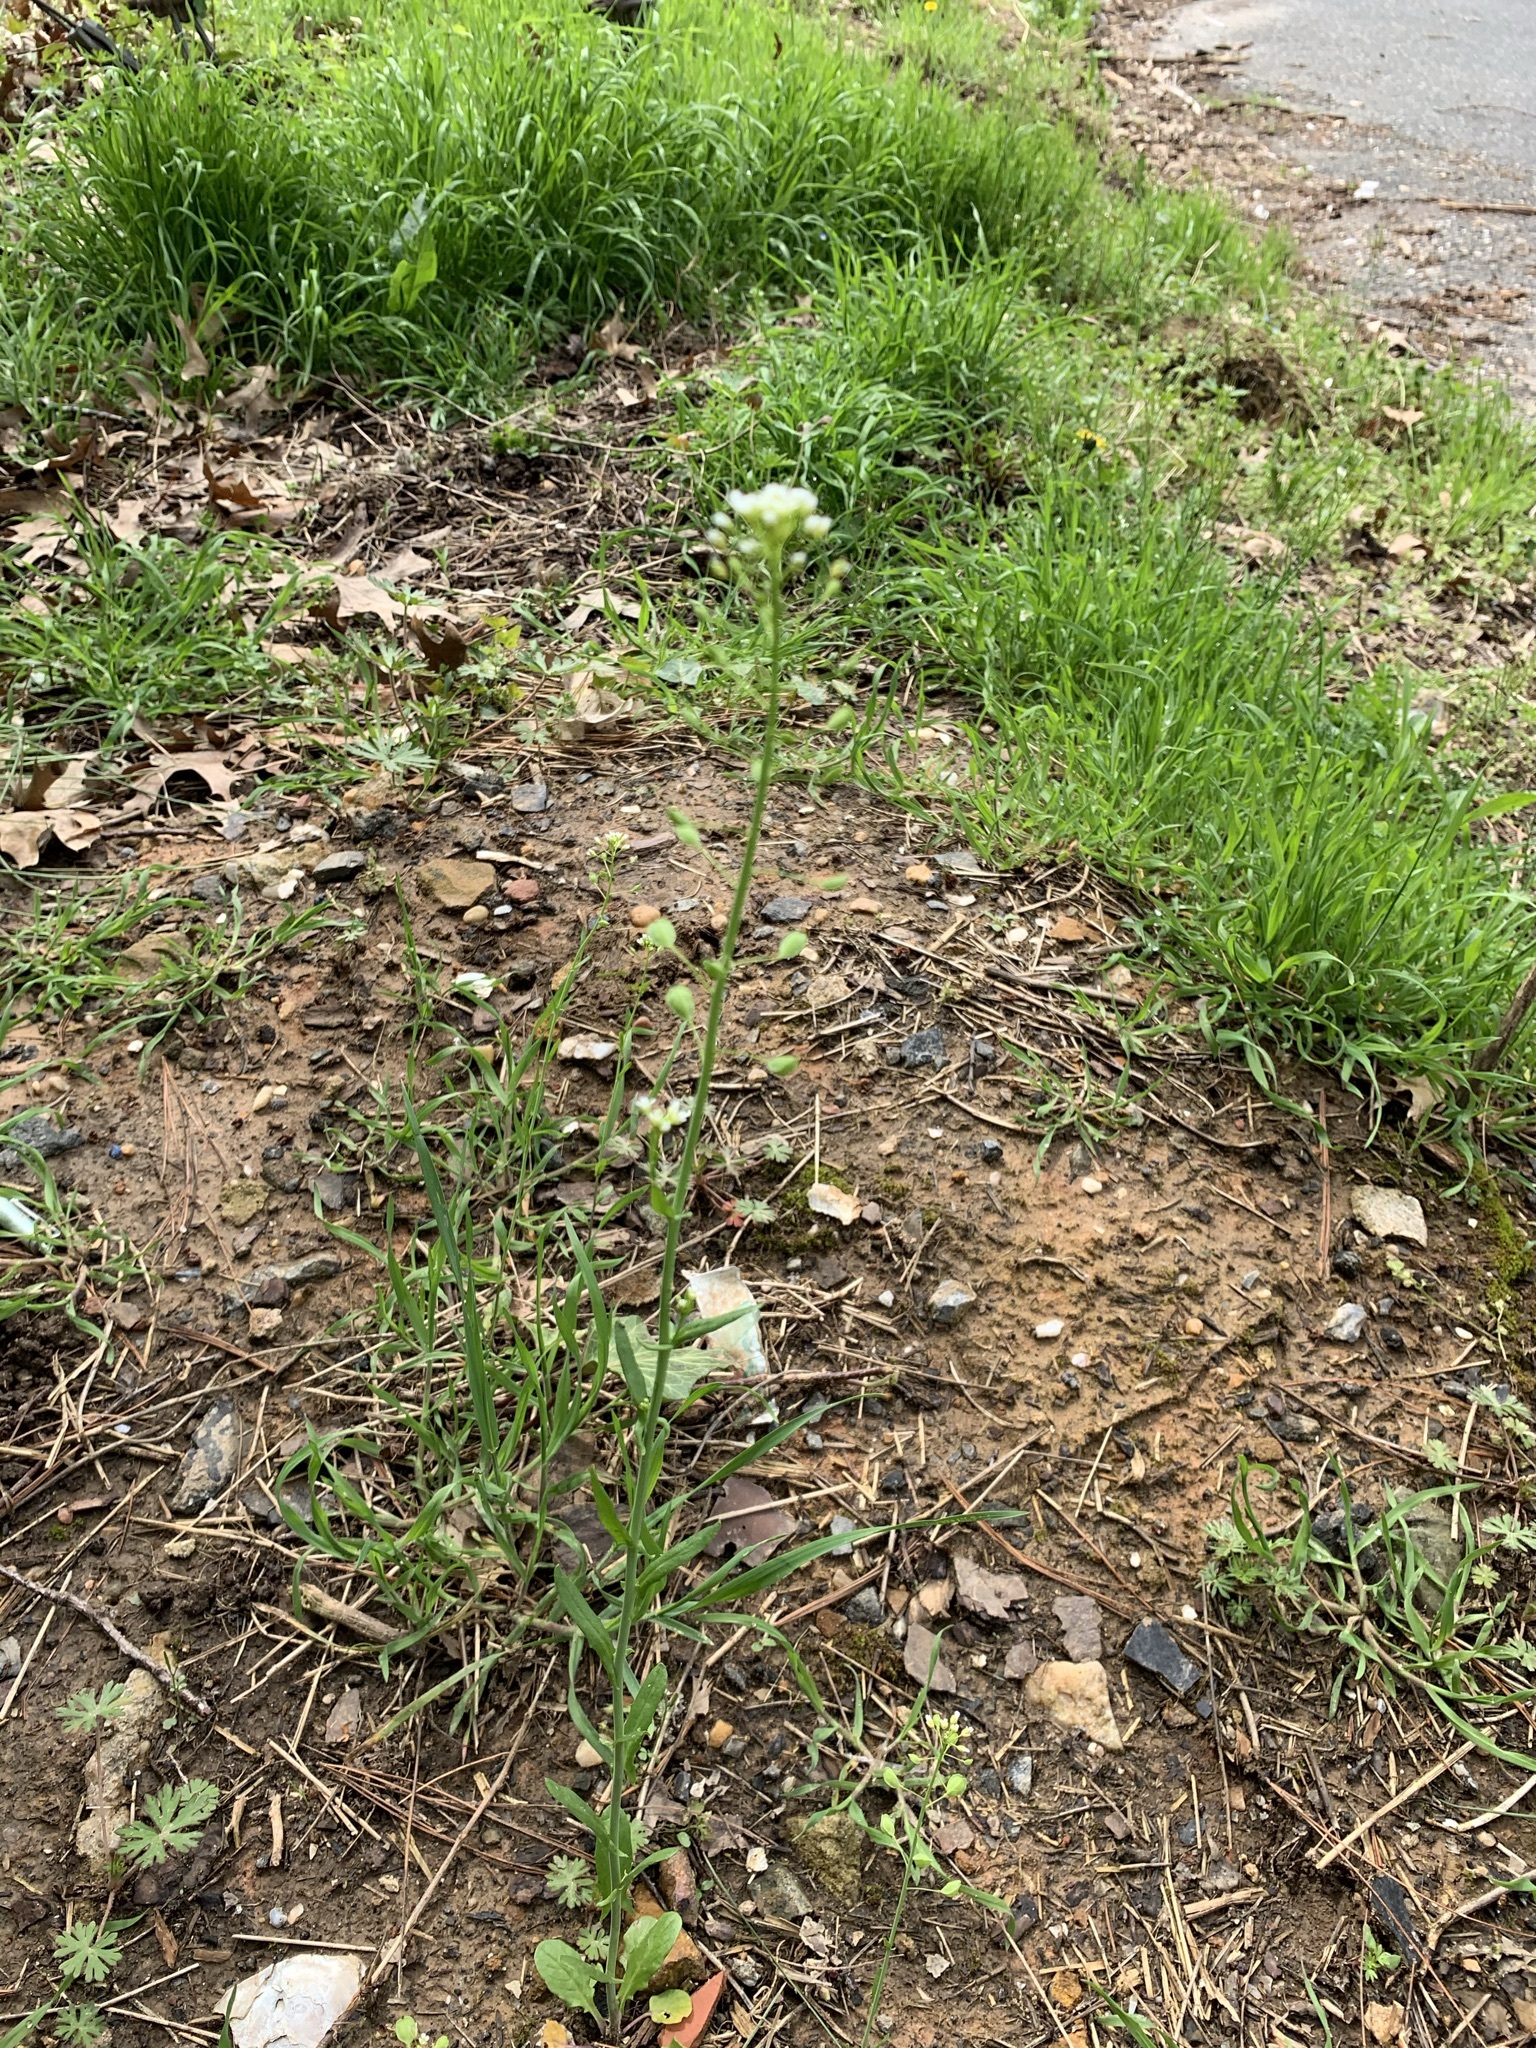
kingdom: Plantae
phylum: Tracheophyta
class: Magnoliopsida
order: Brassicales
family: Brassicaceae
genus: Mummenhoffia
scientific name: Mummenhoffia alliacea
